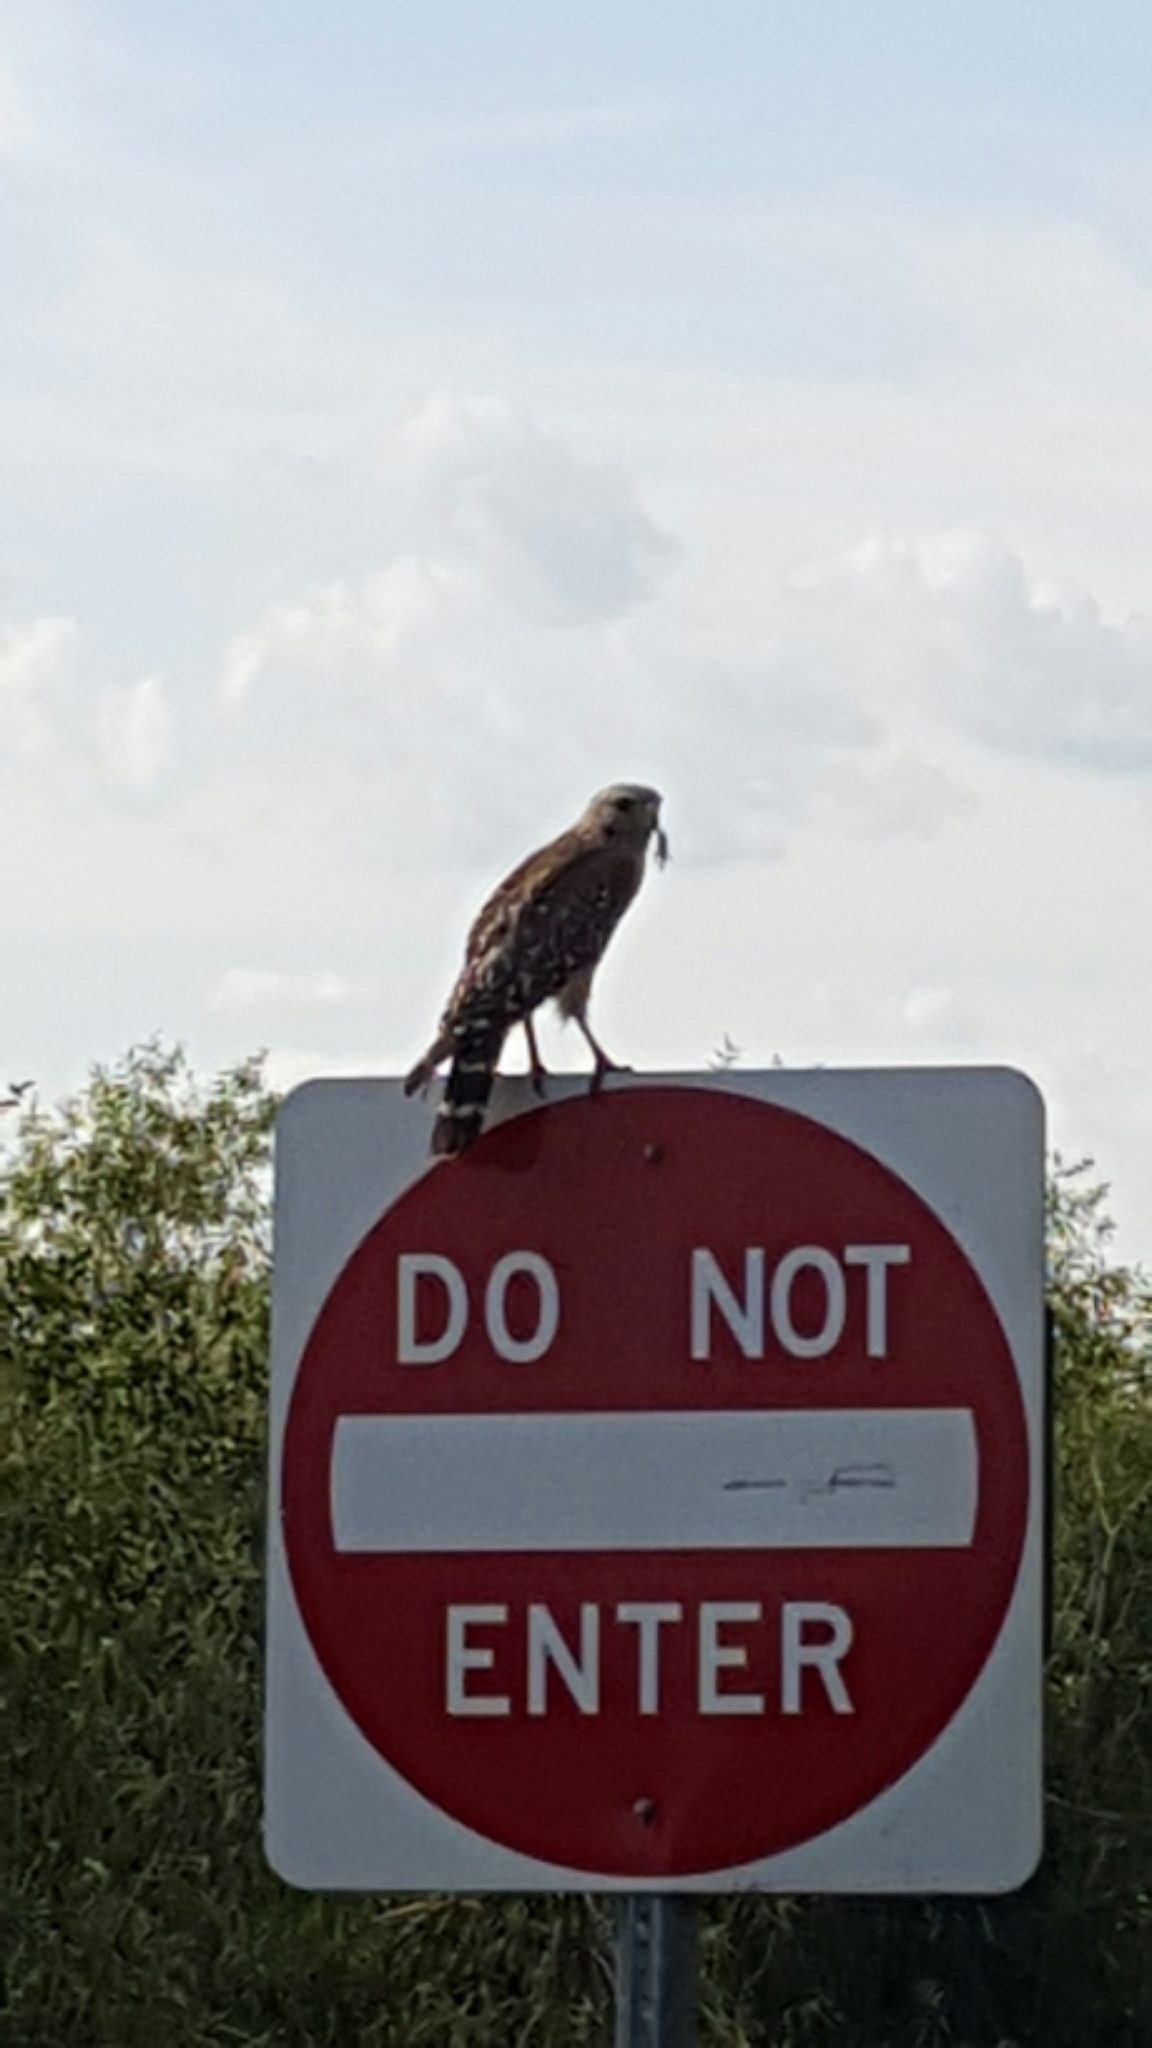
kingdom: Animalia
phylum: Chordata
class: Aves
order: Accipitriformes
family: Accipitridae
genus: Buteo
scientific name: Buteo lineatus
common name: Red-shouldered hawk
